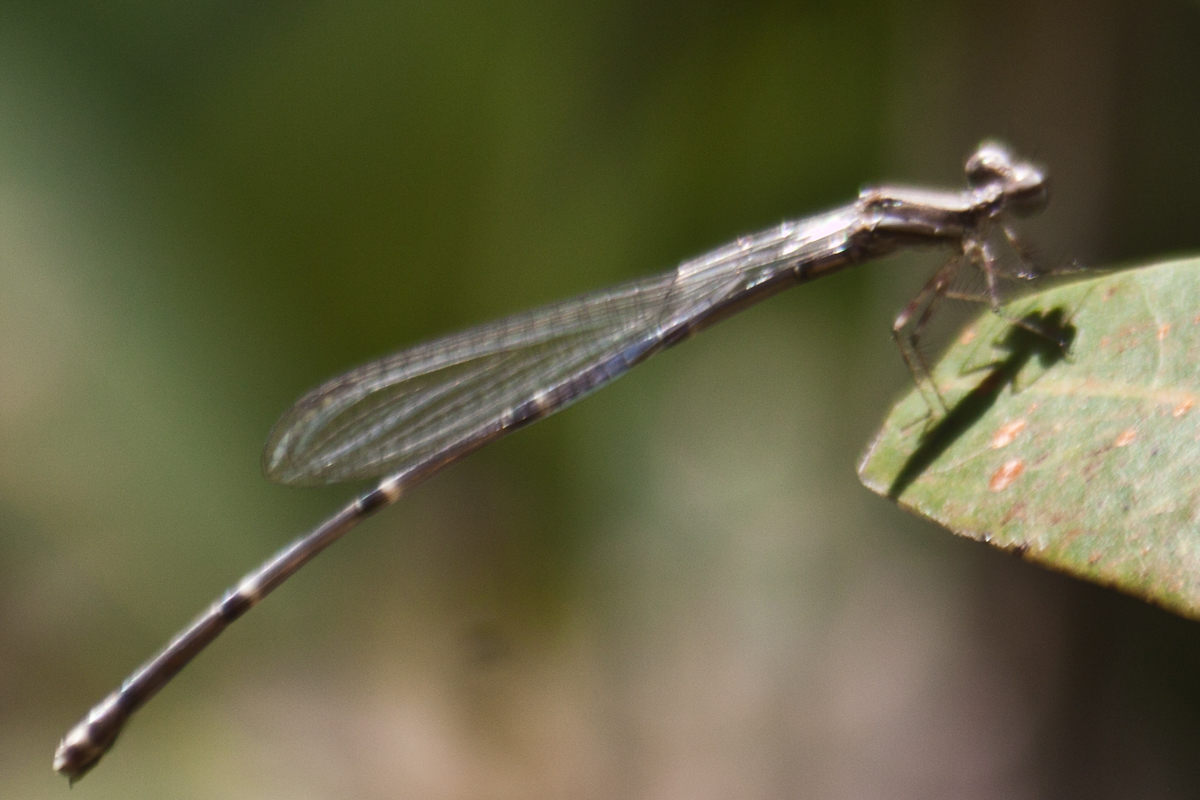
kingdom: Animalia
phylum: Arthropoda
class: Insecta
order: Odonata
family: Platycnemididae
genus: Prodasineura
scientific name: Prodasineura autumnalis
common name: Black threadtail
